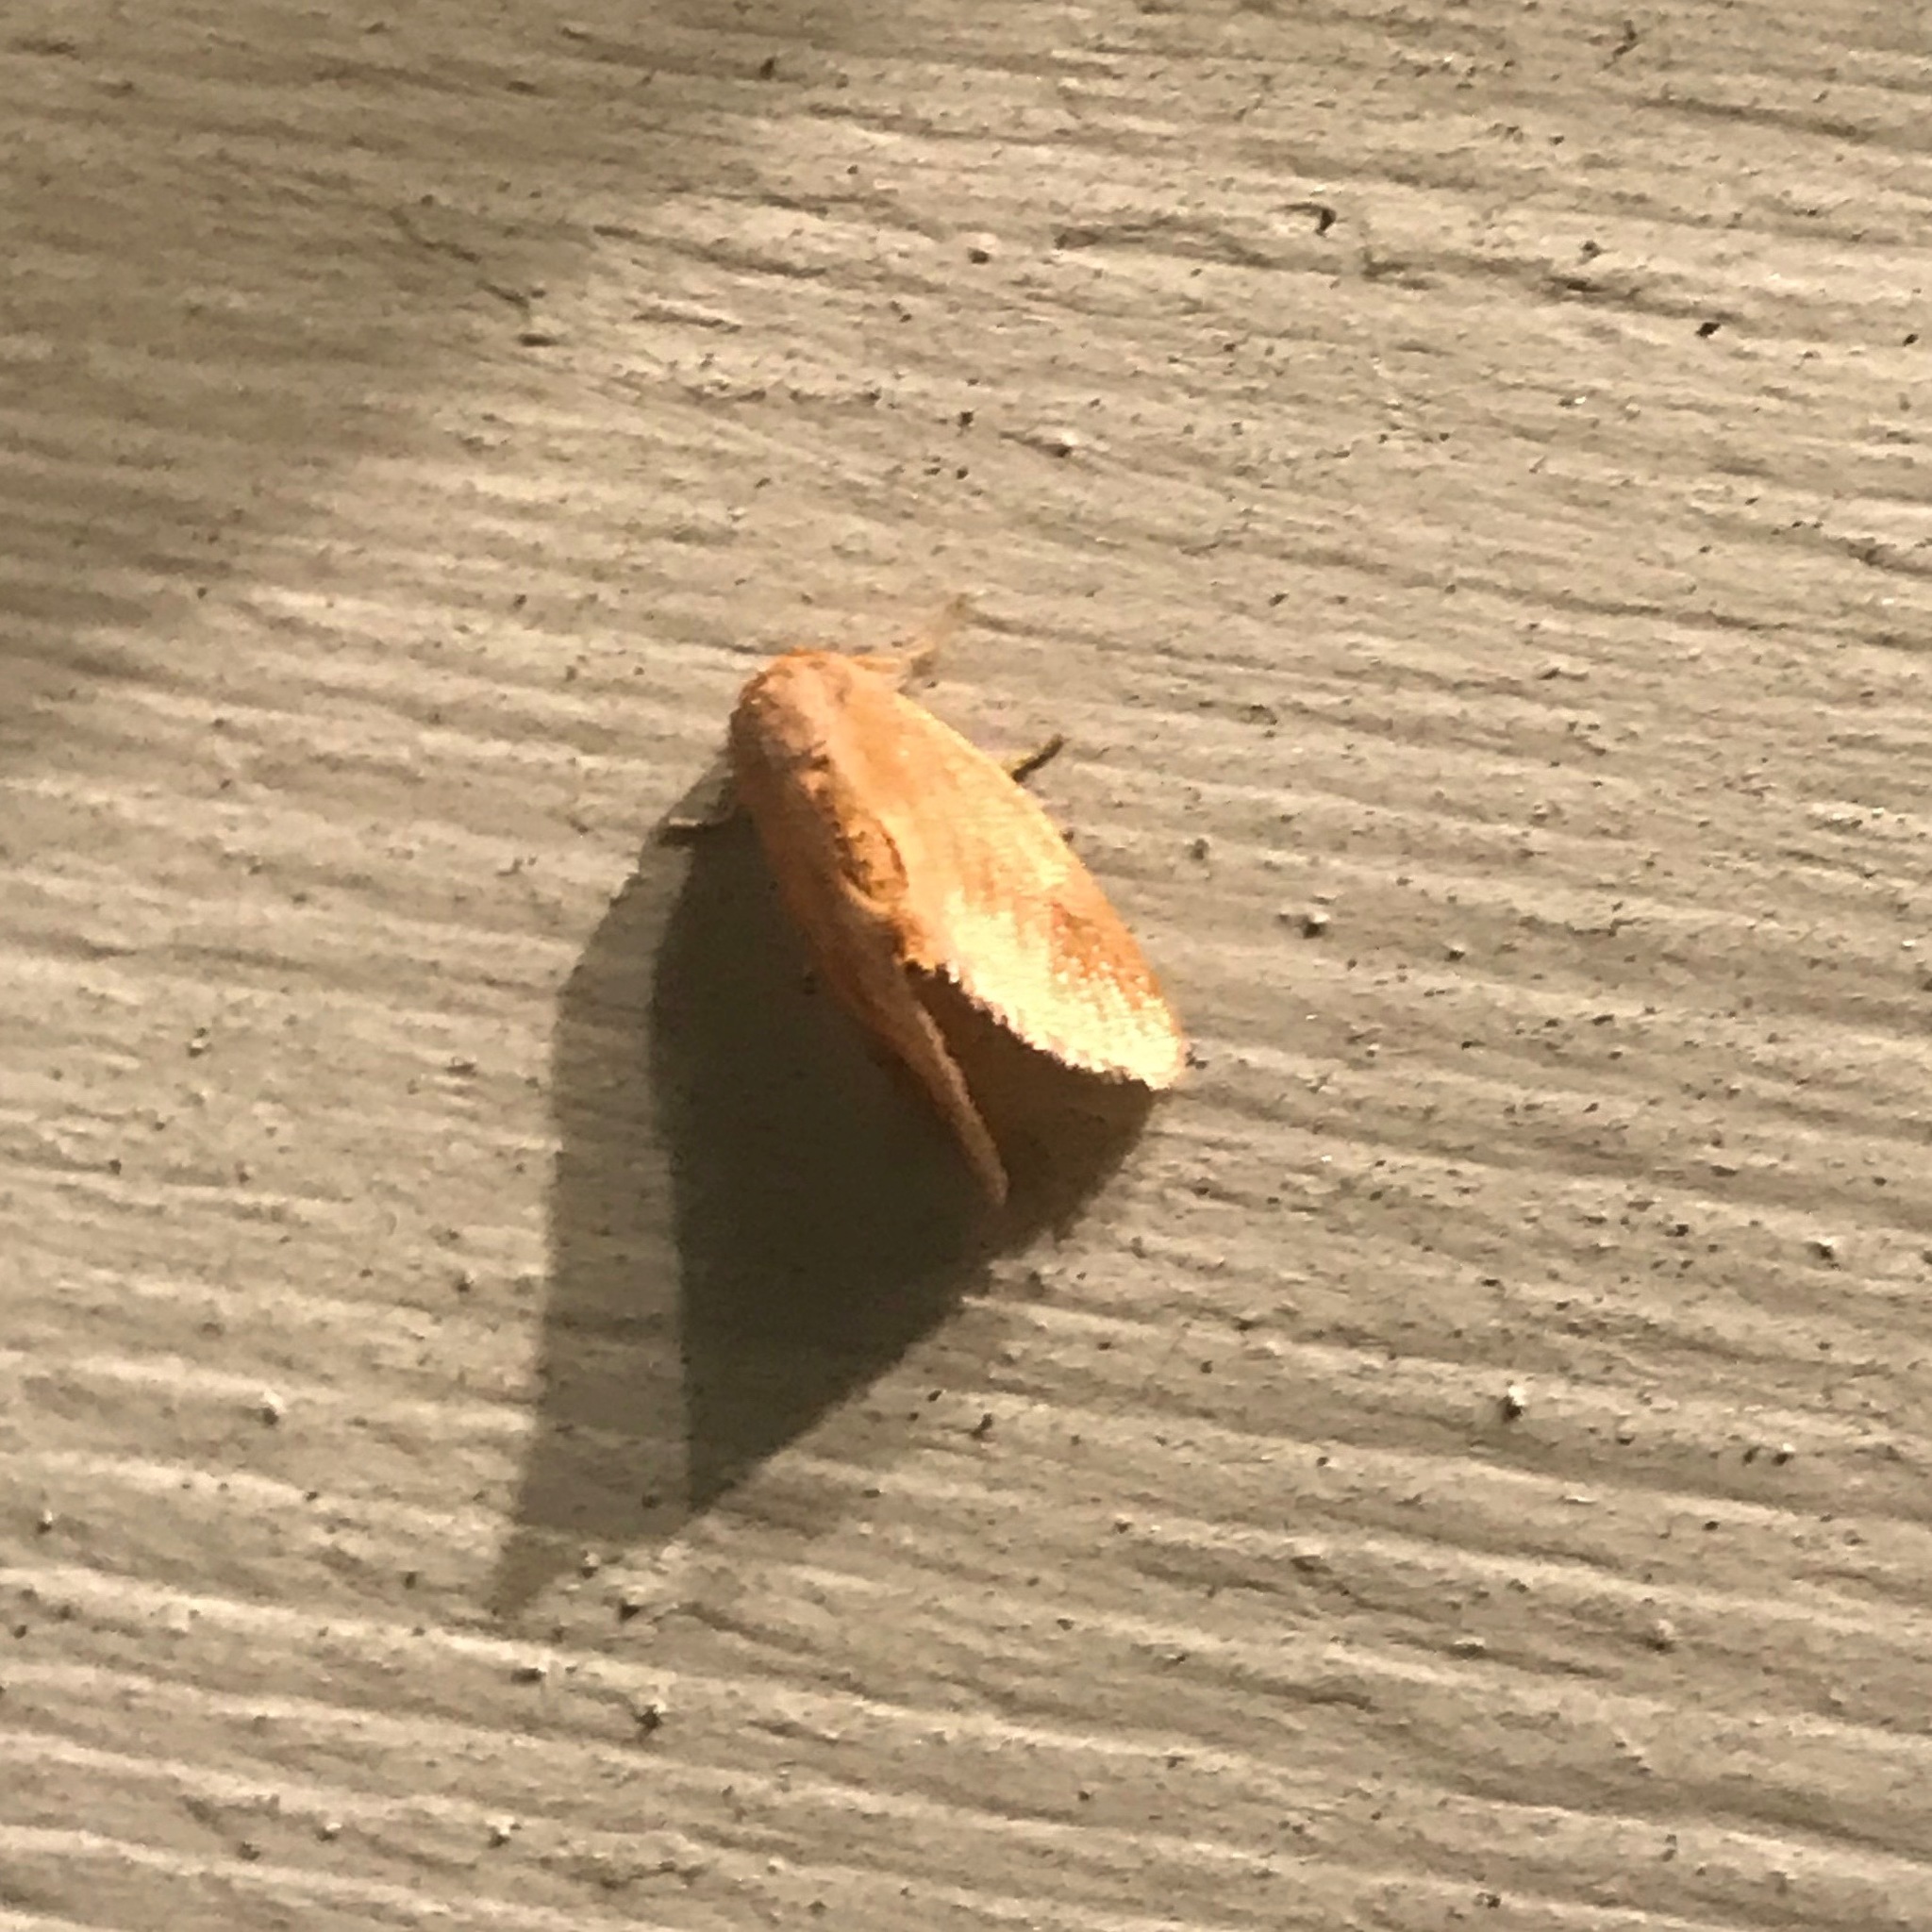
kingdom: Animalia
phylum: Arthropoda
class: Insecta
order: Lepidoptera
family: Limacodidae
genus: Tortricidia
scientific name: Tortricidia testacea
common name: Early button slug moth
